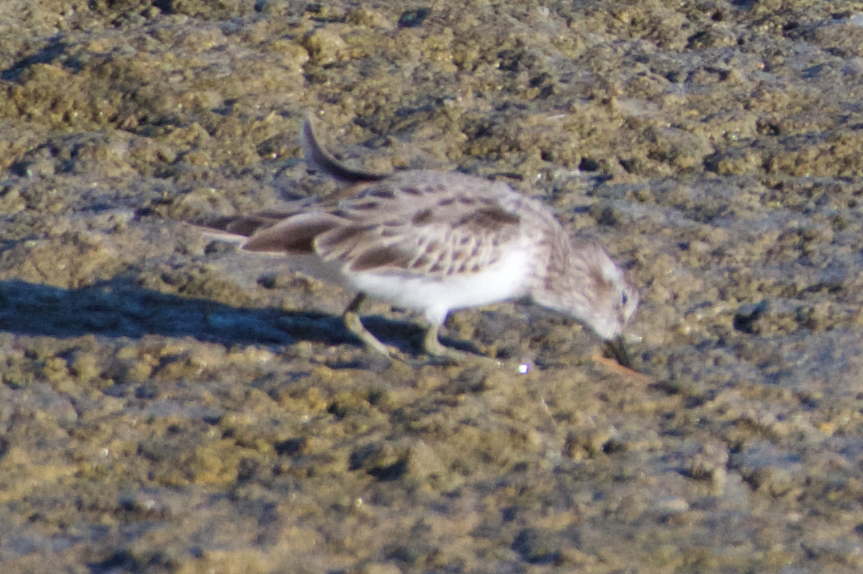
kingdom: Animalia
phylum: Chordata
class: Aves
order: Charadriiformes
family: Scolopacidae
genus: Calidris
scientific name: Calidris minutilla
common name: Least sandpiper
